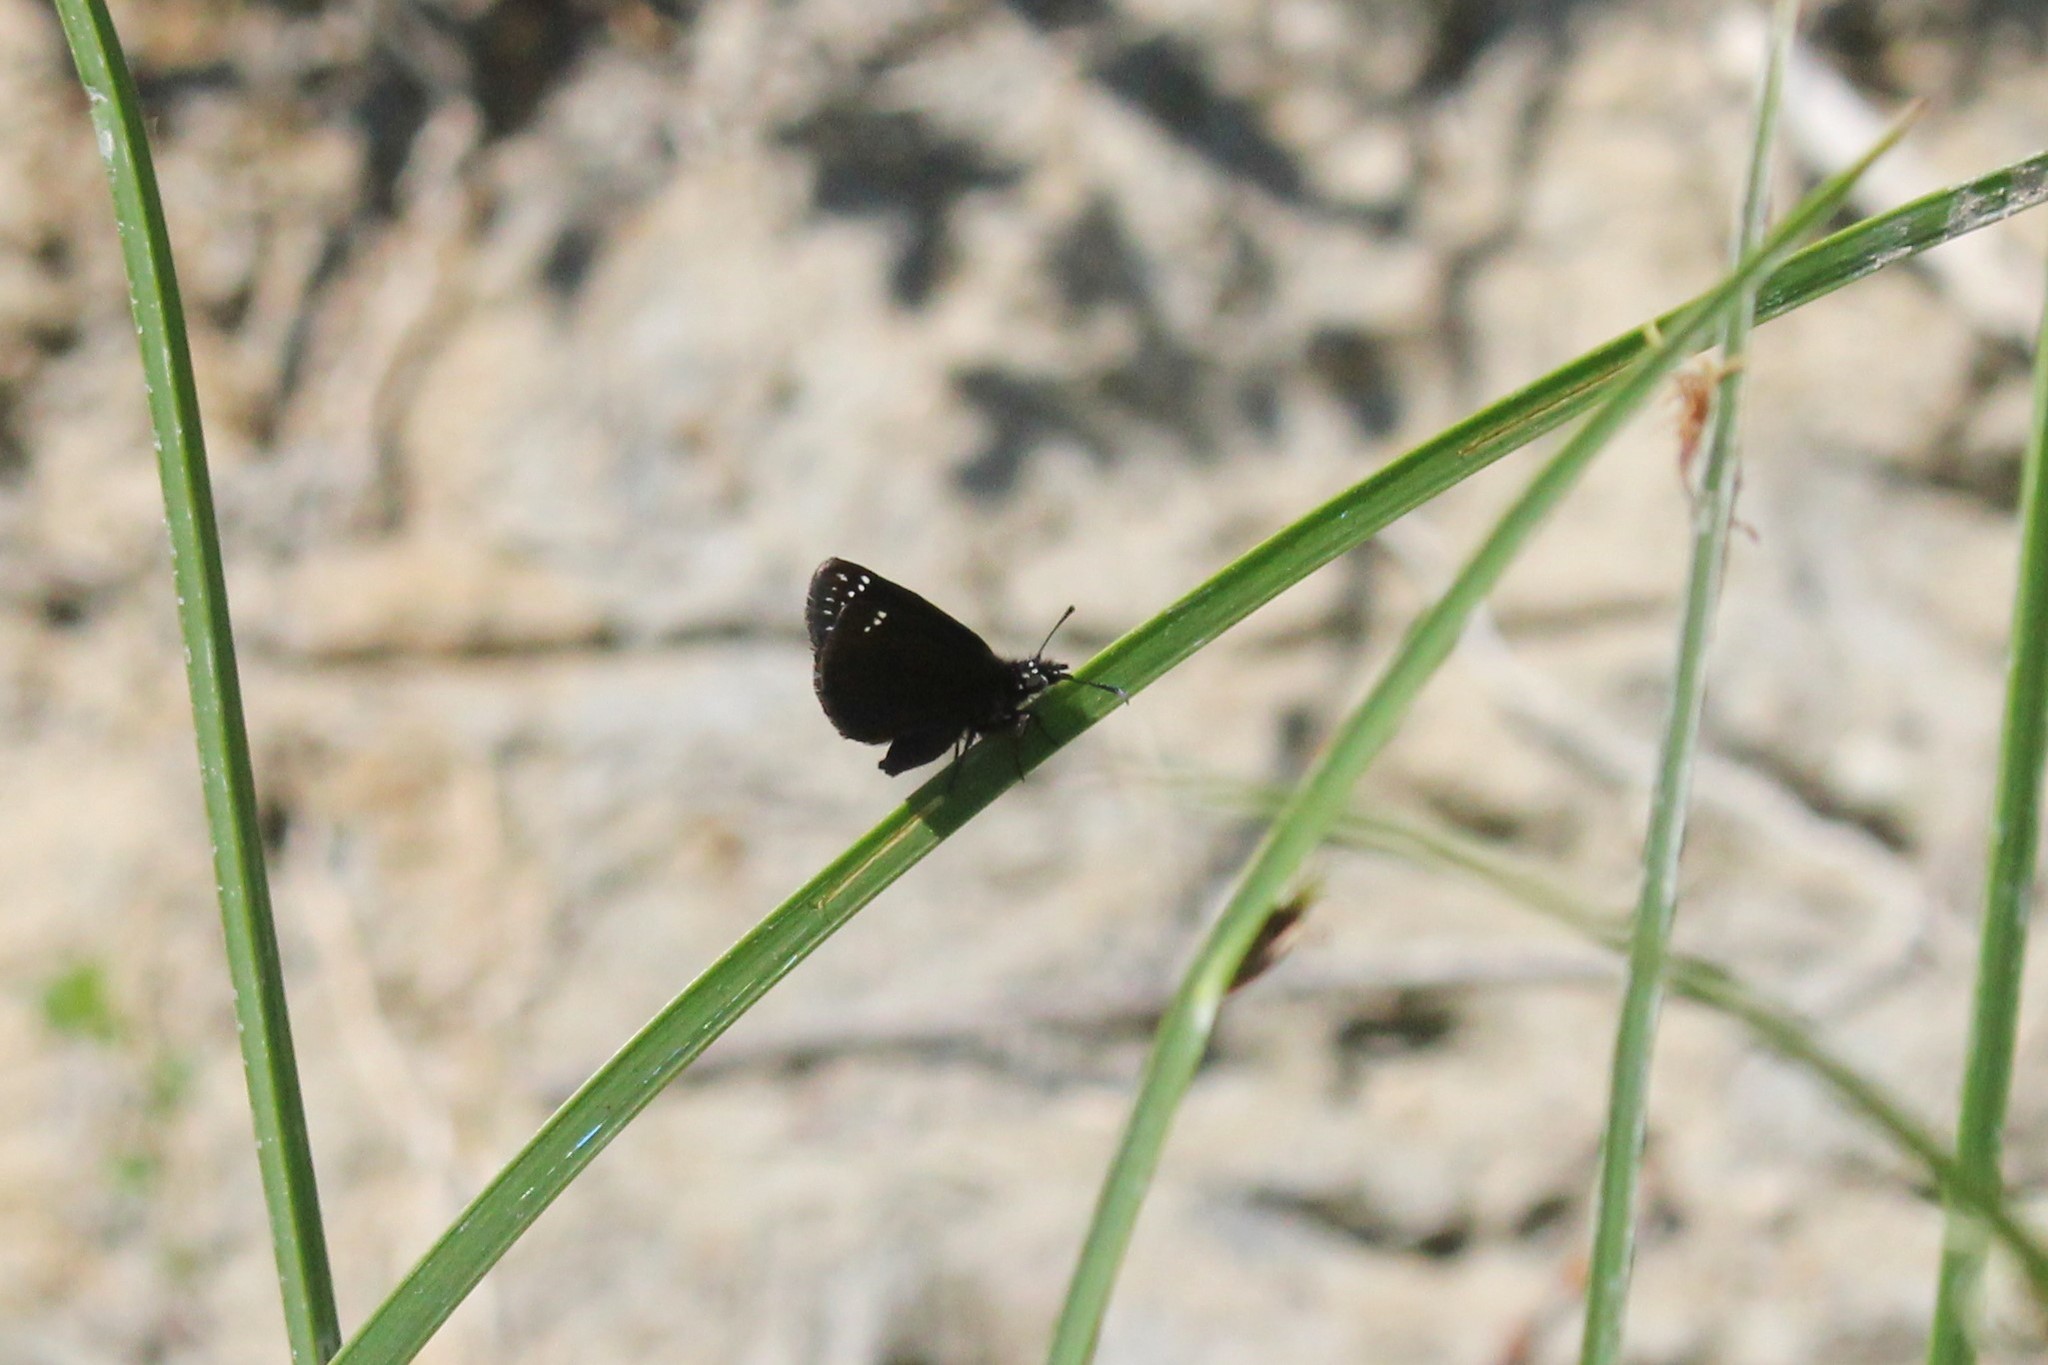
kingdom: Animalia
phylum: Arthropoda
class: Insecta
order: Lepidoptera
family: Hesperiidae
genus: Pholisora
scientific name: Pholisora catullus
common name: Common sootywing
